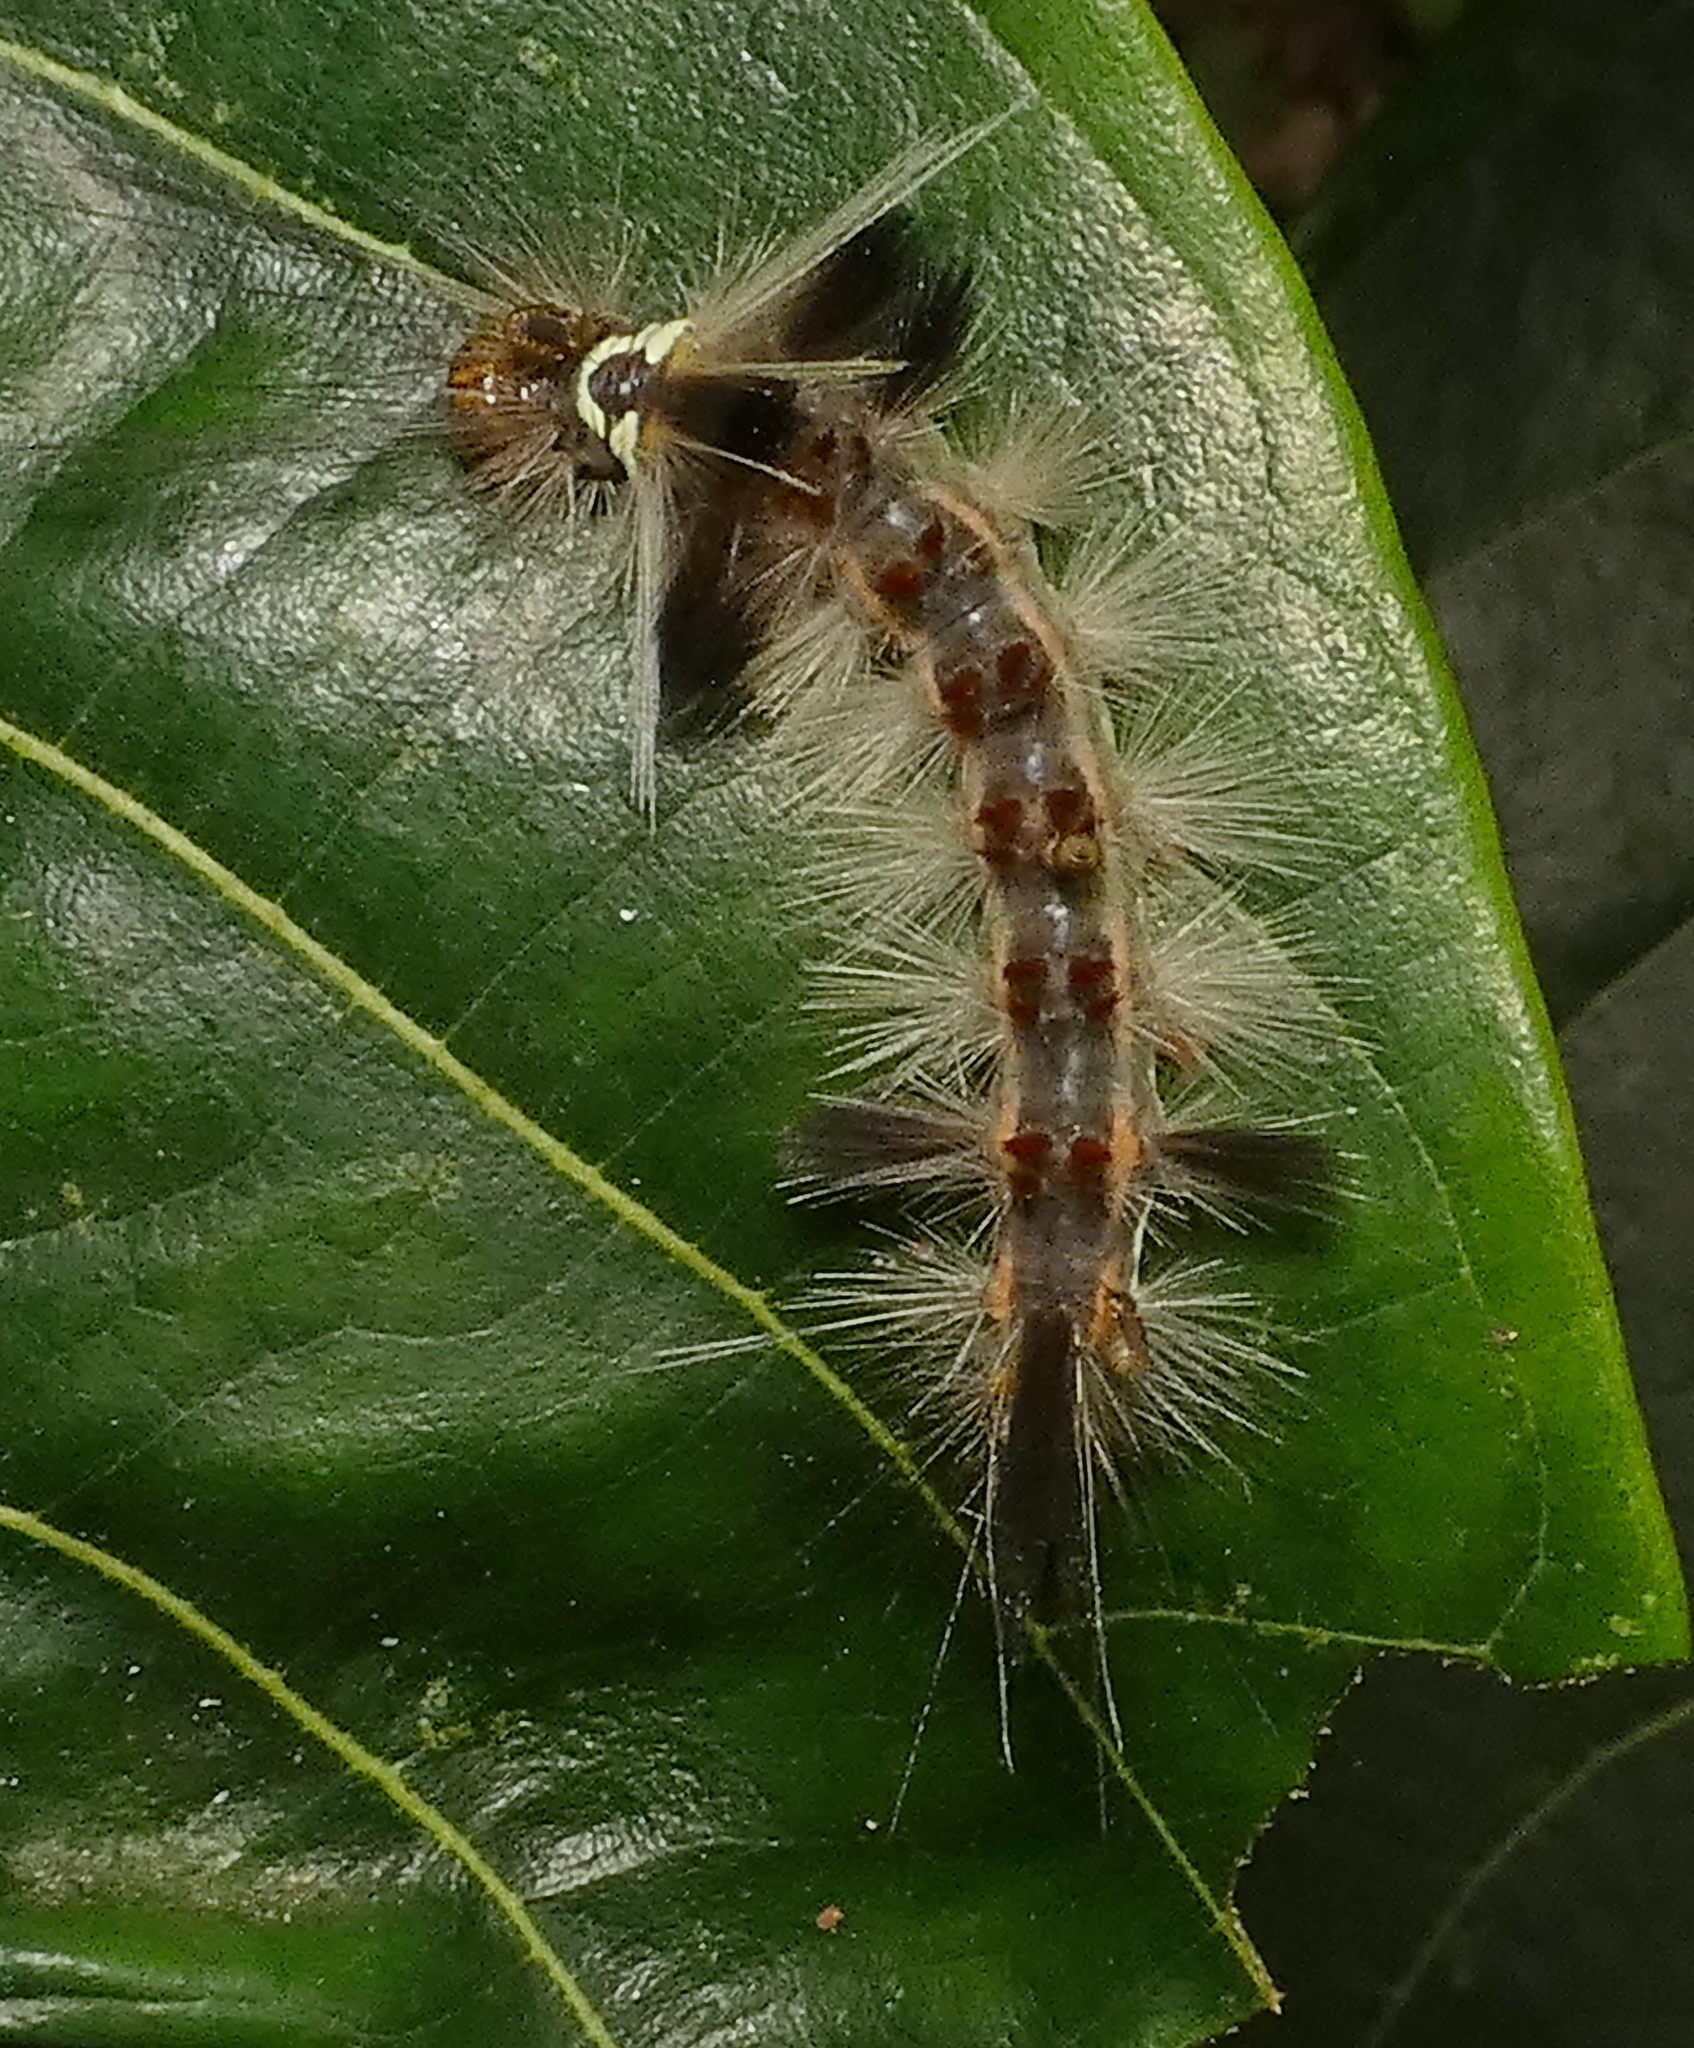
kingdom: Animalia
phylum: Arthropoda
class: Insecta
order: Lepidoptera
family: Erebidae
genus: Carales
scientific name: Carales astur
